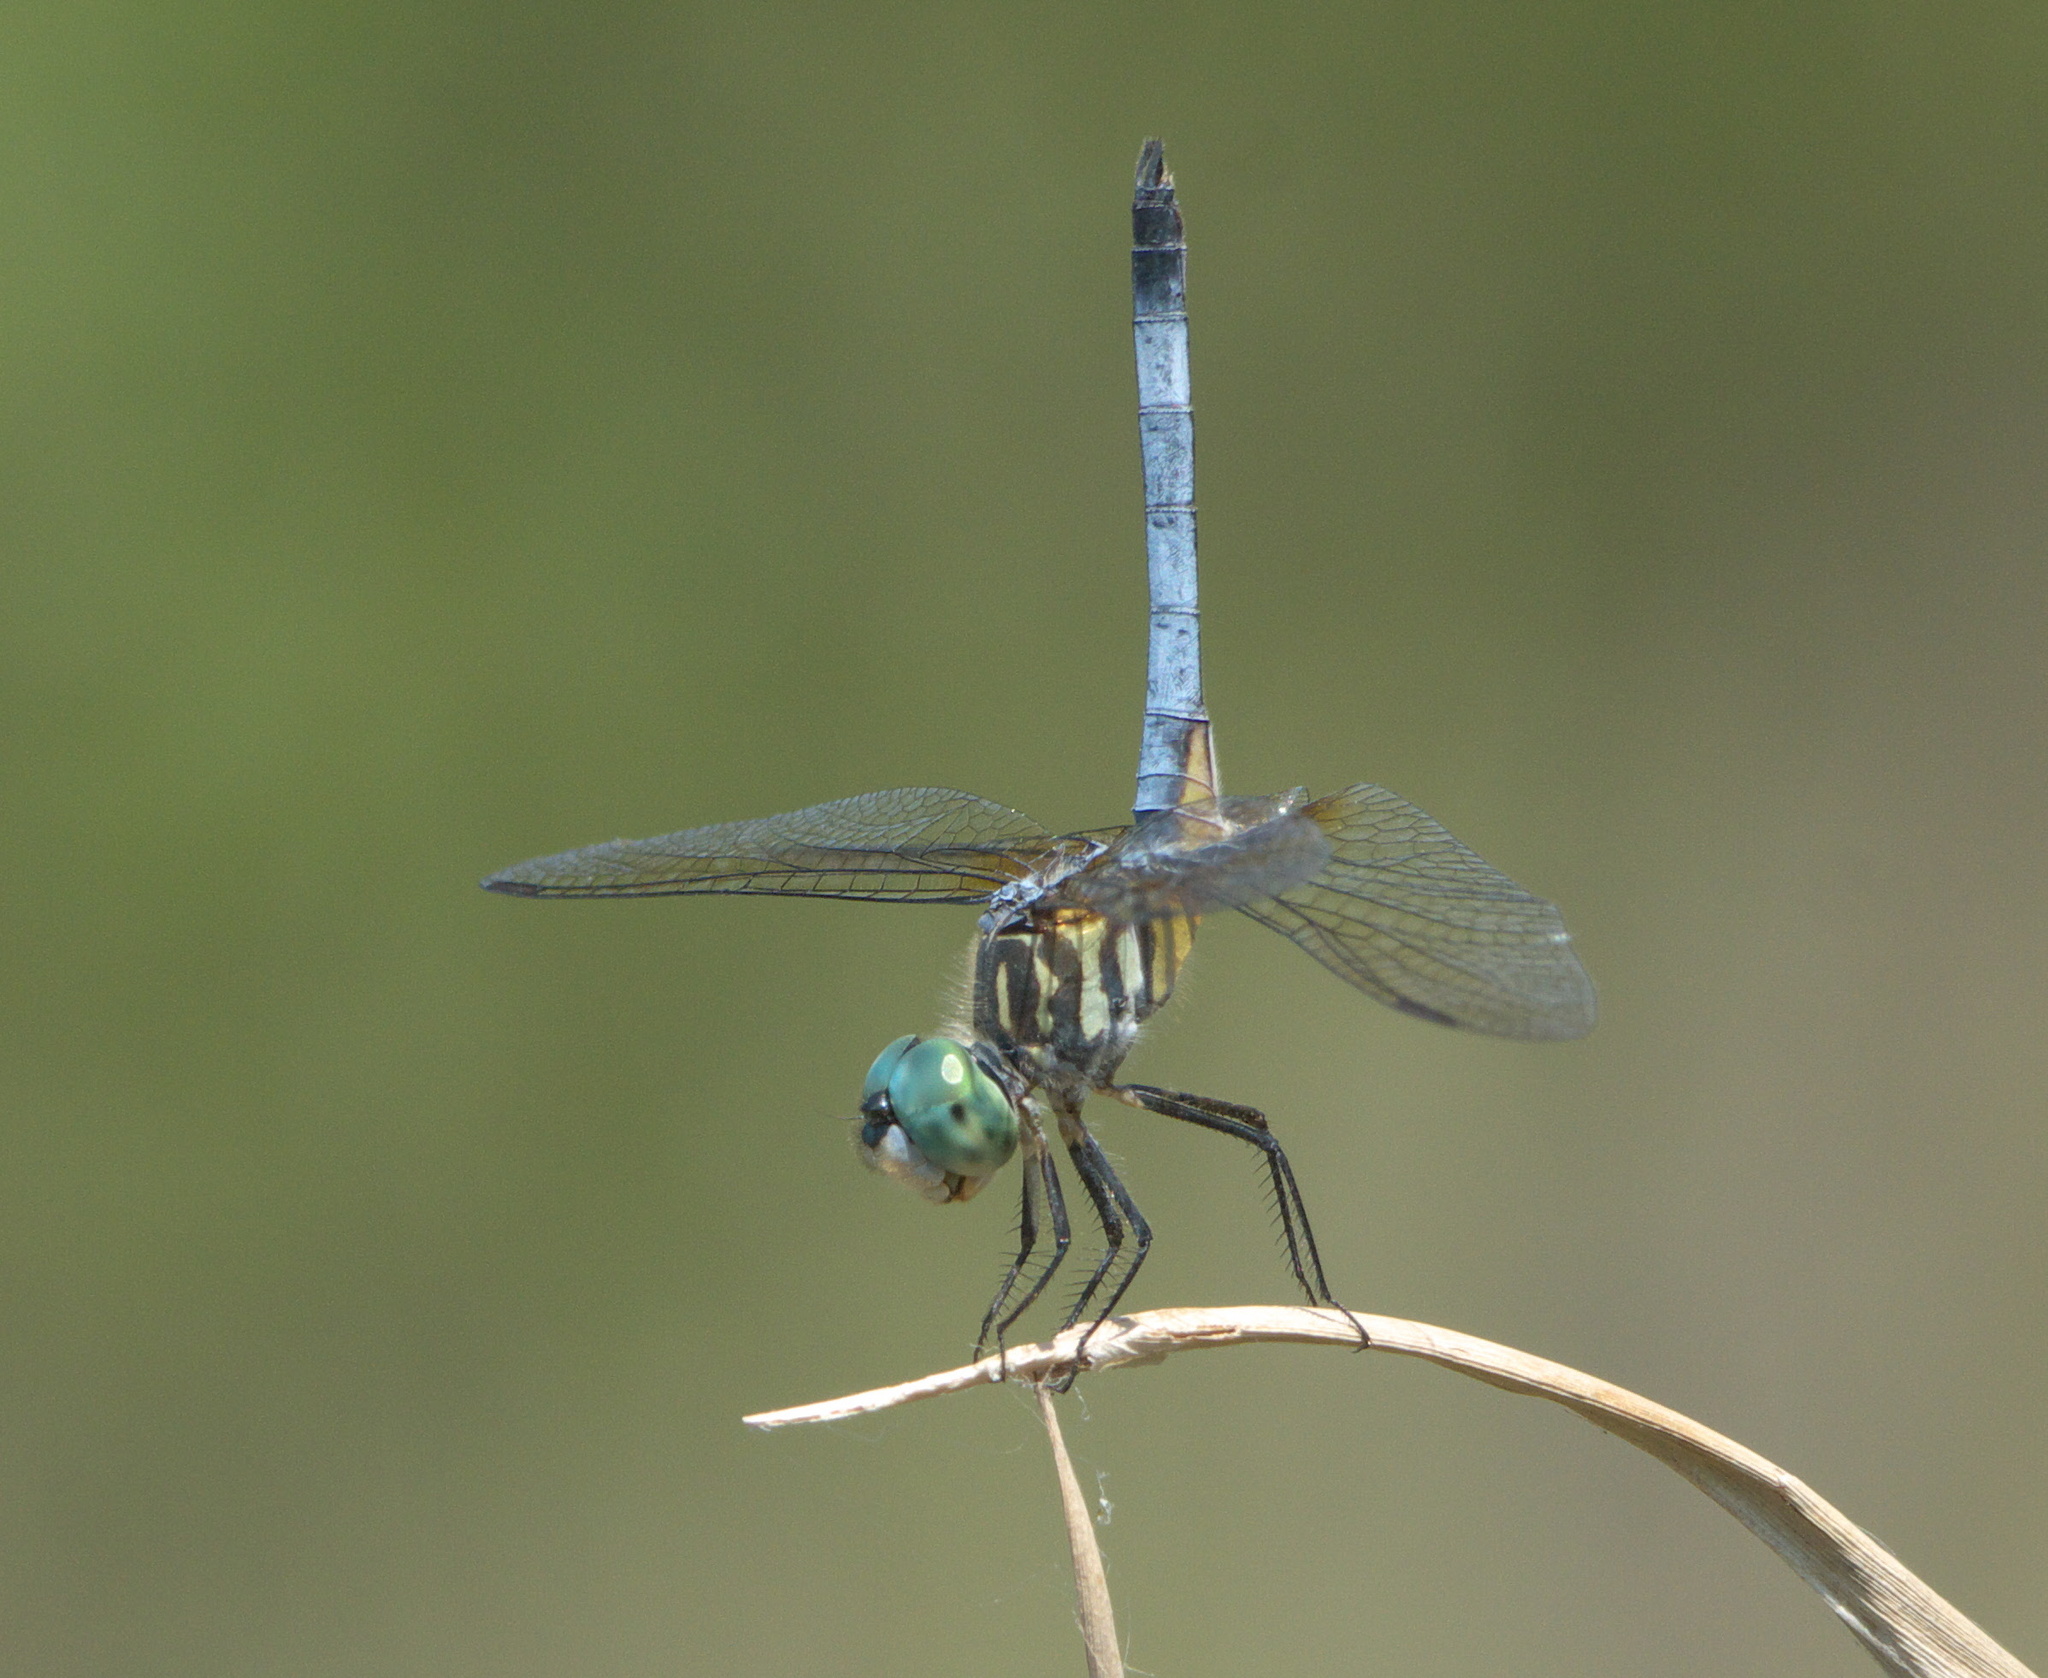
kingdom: Animalia
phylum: Arthropoda
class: Insecta
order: Odonata
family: Libellulidae
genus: Pachydiplax
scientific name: Pachydiplax longipennis
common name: Blue dasher
